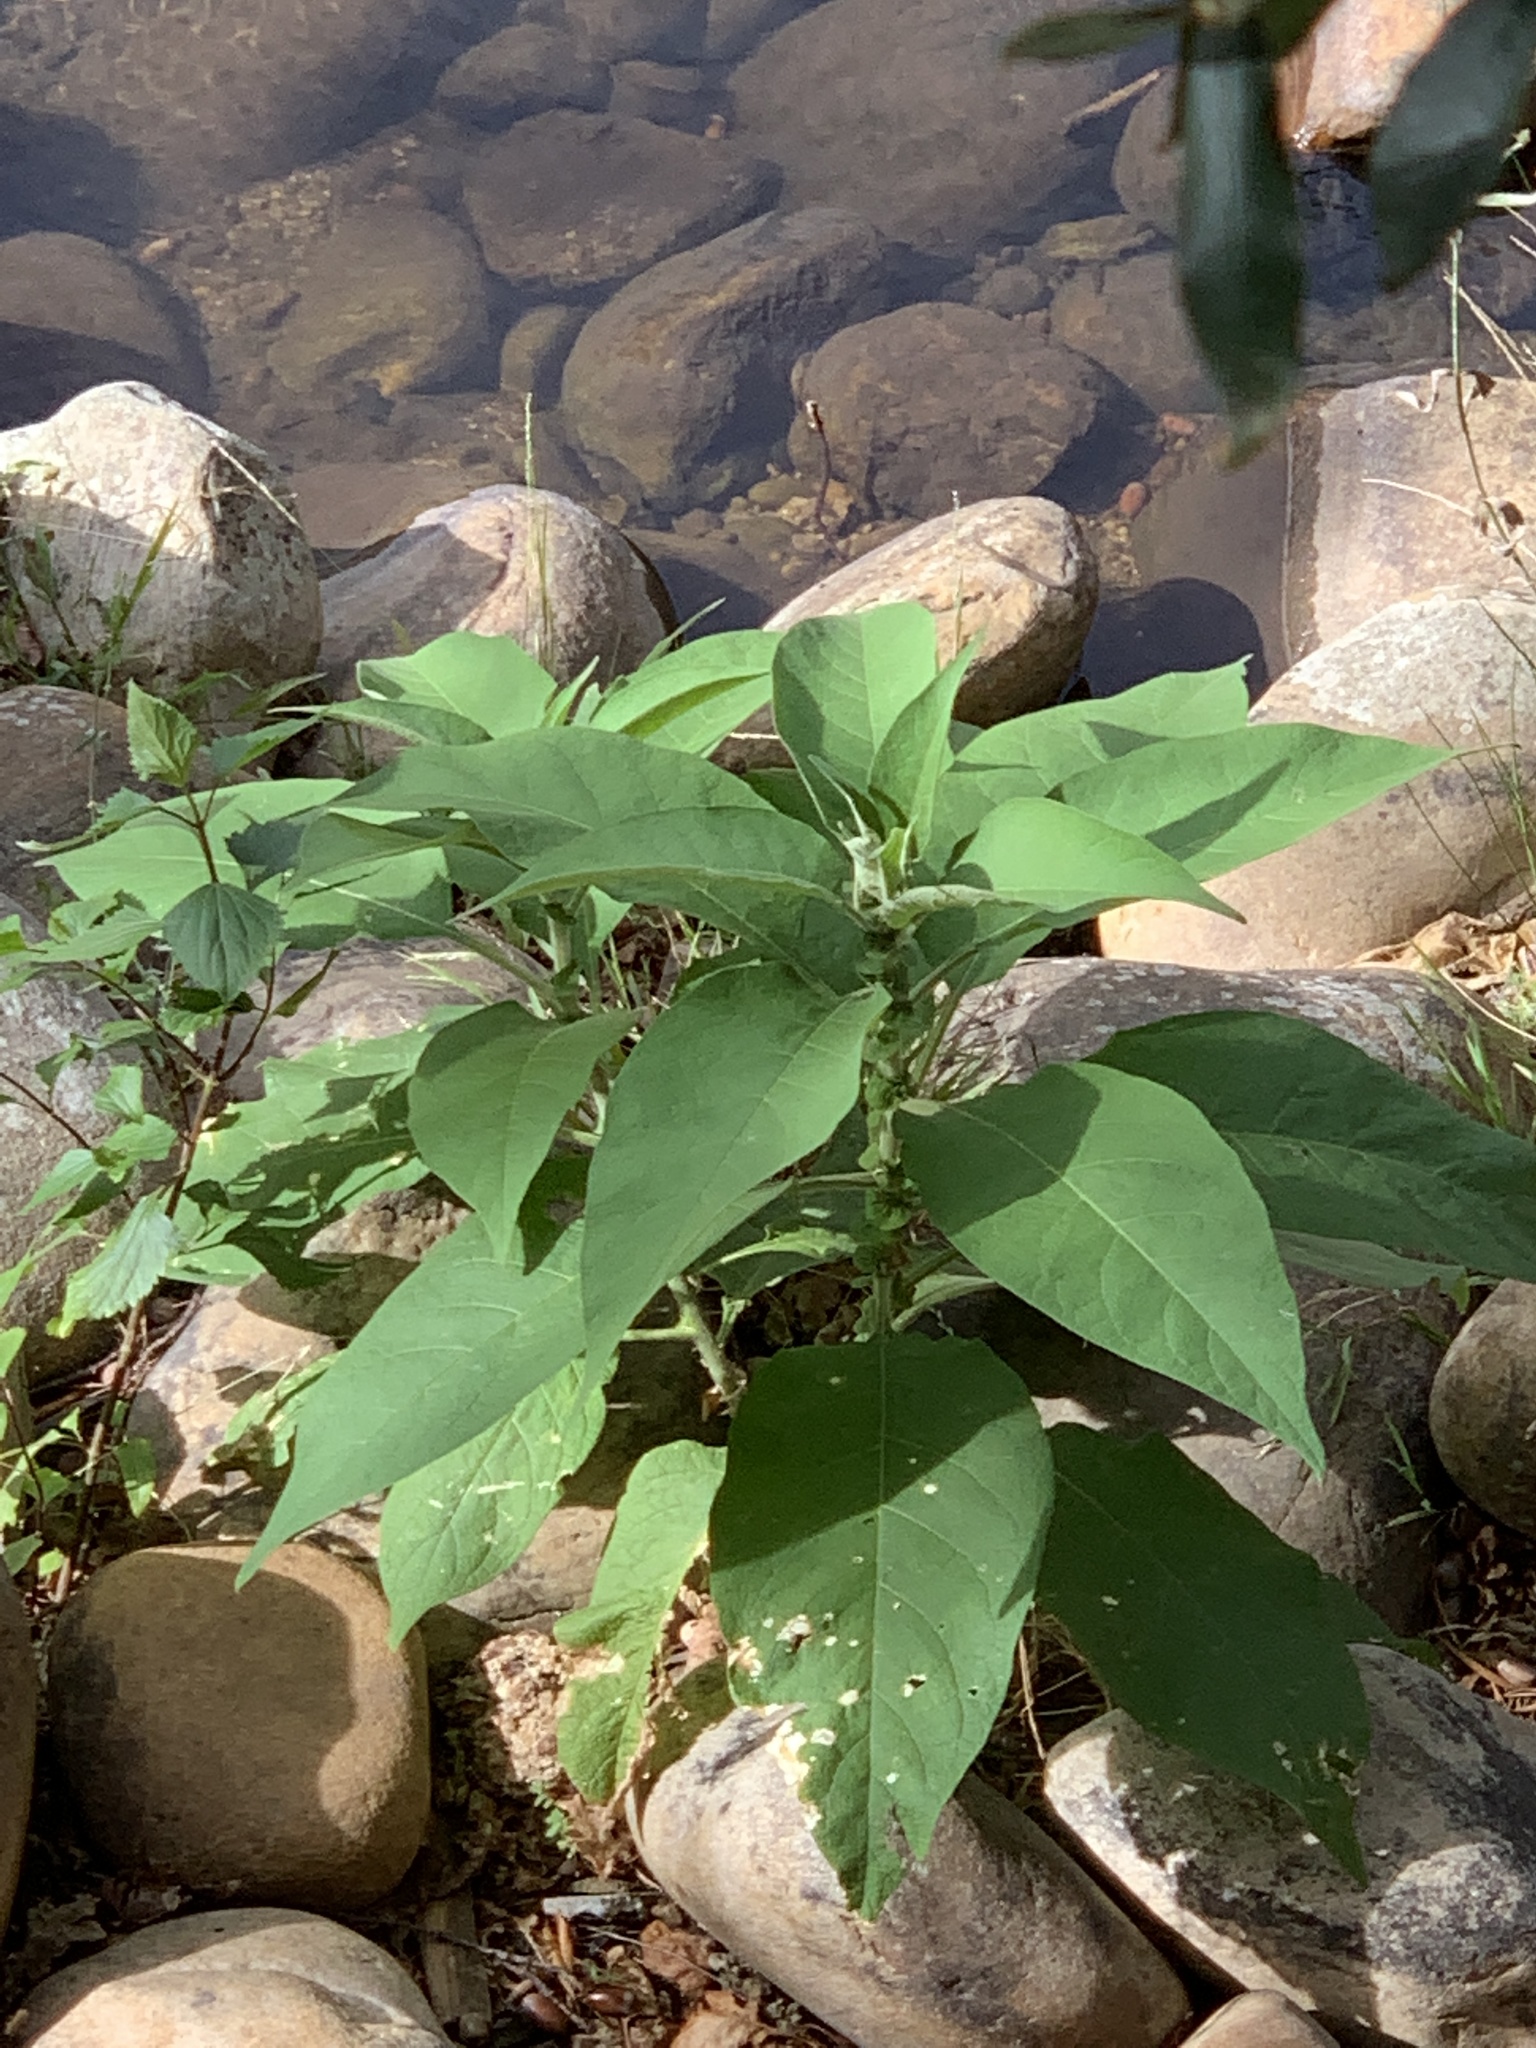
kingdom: Plantae
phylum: Tracheophyta
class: Magnoliopsida
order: Solanales
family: Solanaceae
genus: Solanum
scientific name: Solanum mauritianum
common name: Earleaf nightshade
